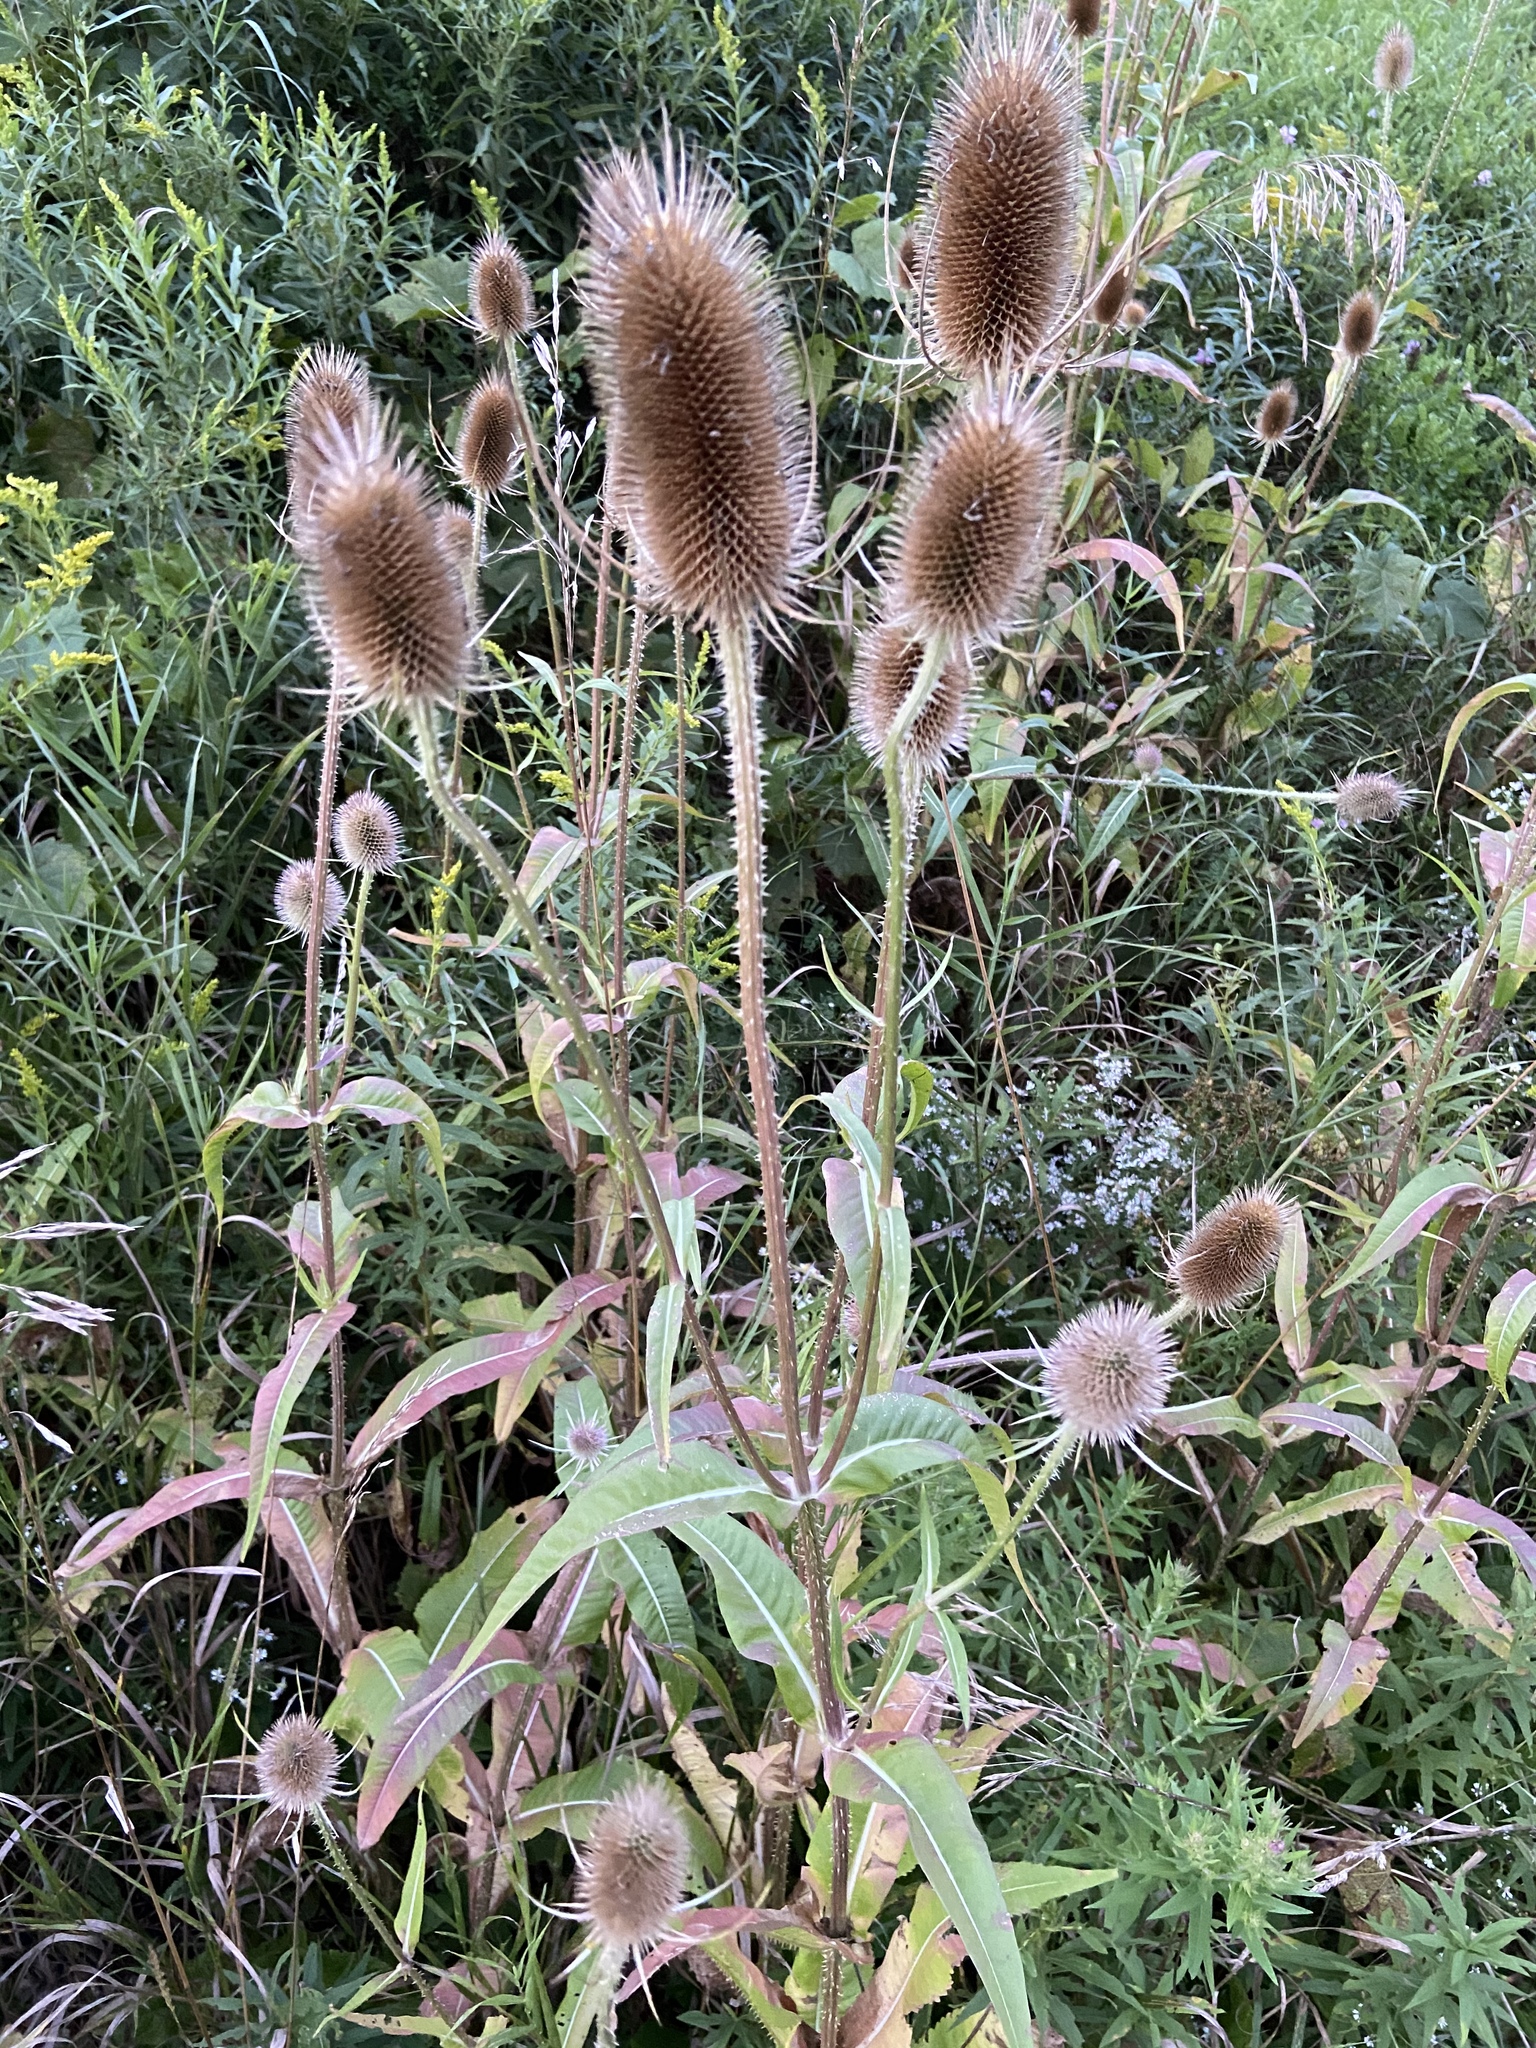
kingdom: Plantae
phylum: Tracheophyta
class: Magnoliopsida
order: Dipsacales
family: Caprifoliaceae
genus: Dipsacus
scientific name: Dipsacus fullonum
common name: Teasel
